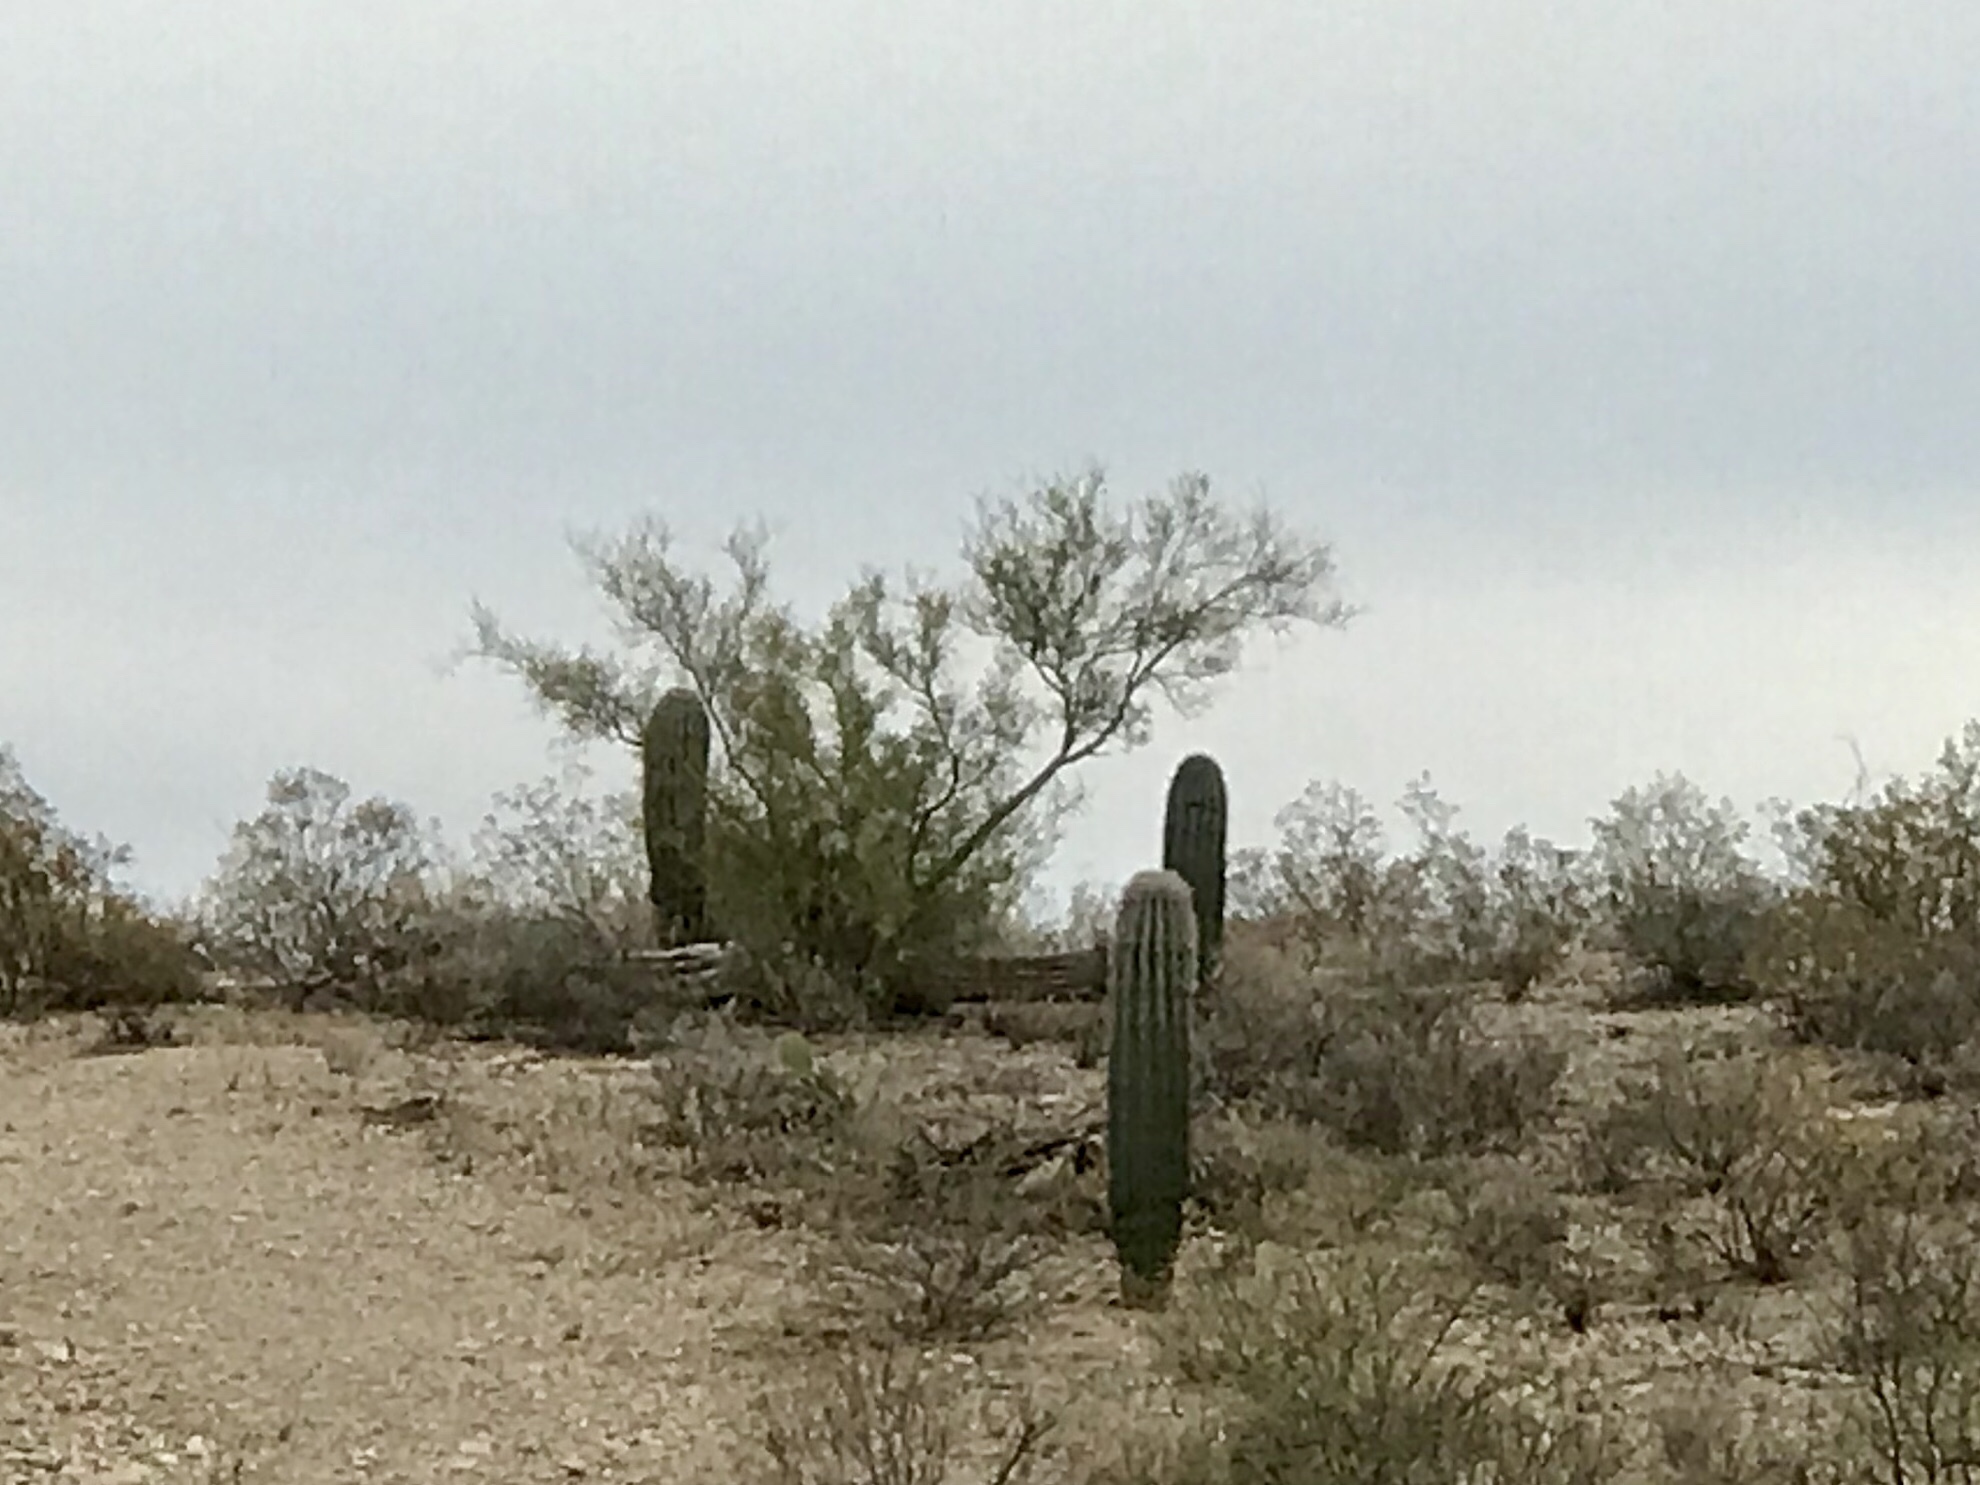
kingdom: Plantae
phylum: Tracheophyta
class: Magnoliopsida
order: Caryophyllales
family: Cactaceae
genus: Carnegiea
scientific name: Carnegiea gigantea
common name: Saguaro
